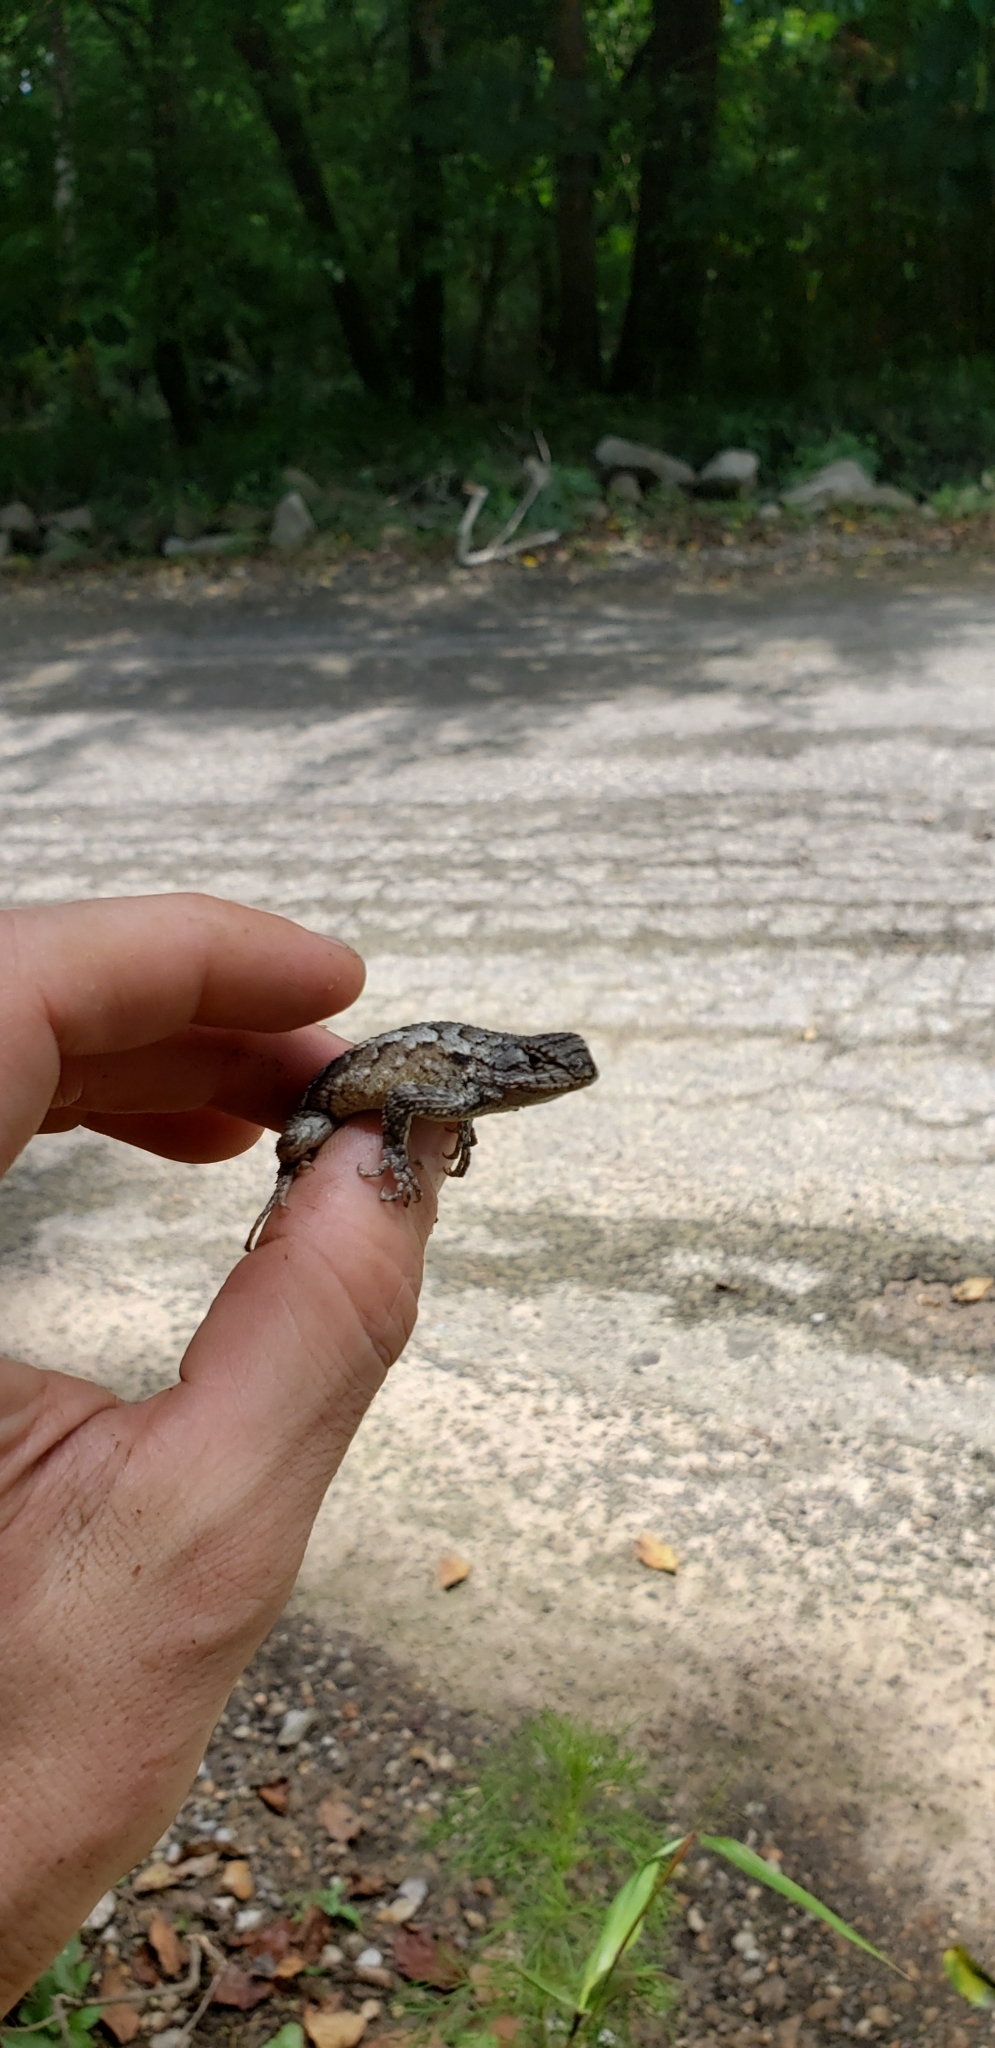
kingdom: Animalia
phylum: Chordata
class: Squamata
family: Phrynosomatidae
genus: Sceloporus
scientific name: Sceloporus consobrinus
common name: Southern prairie lizard
